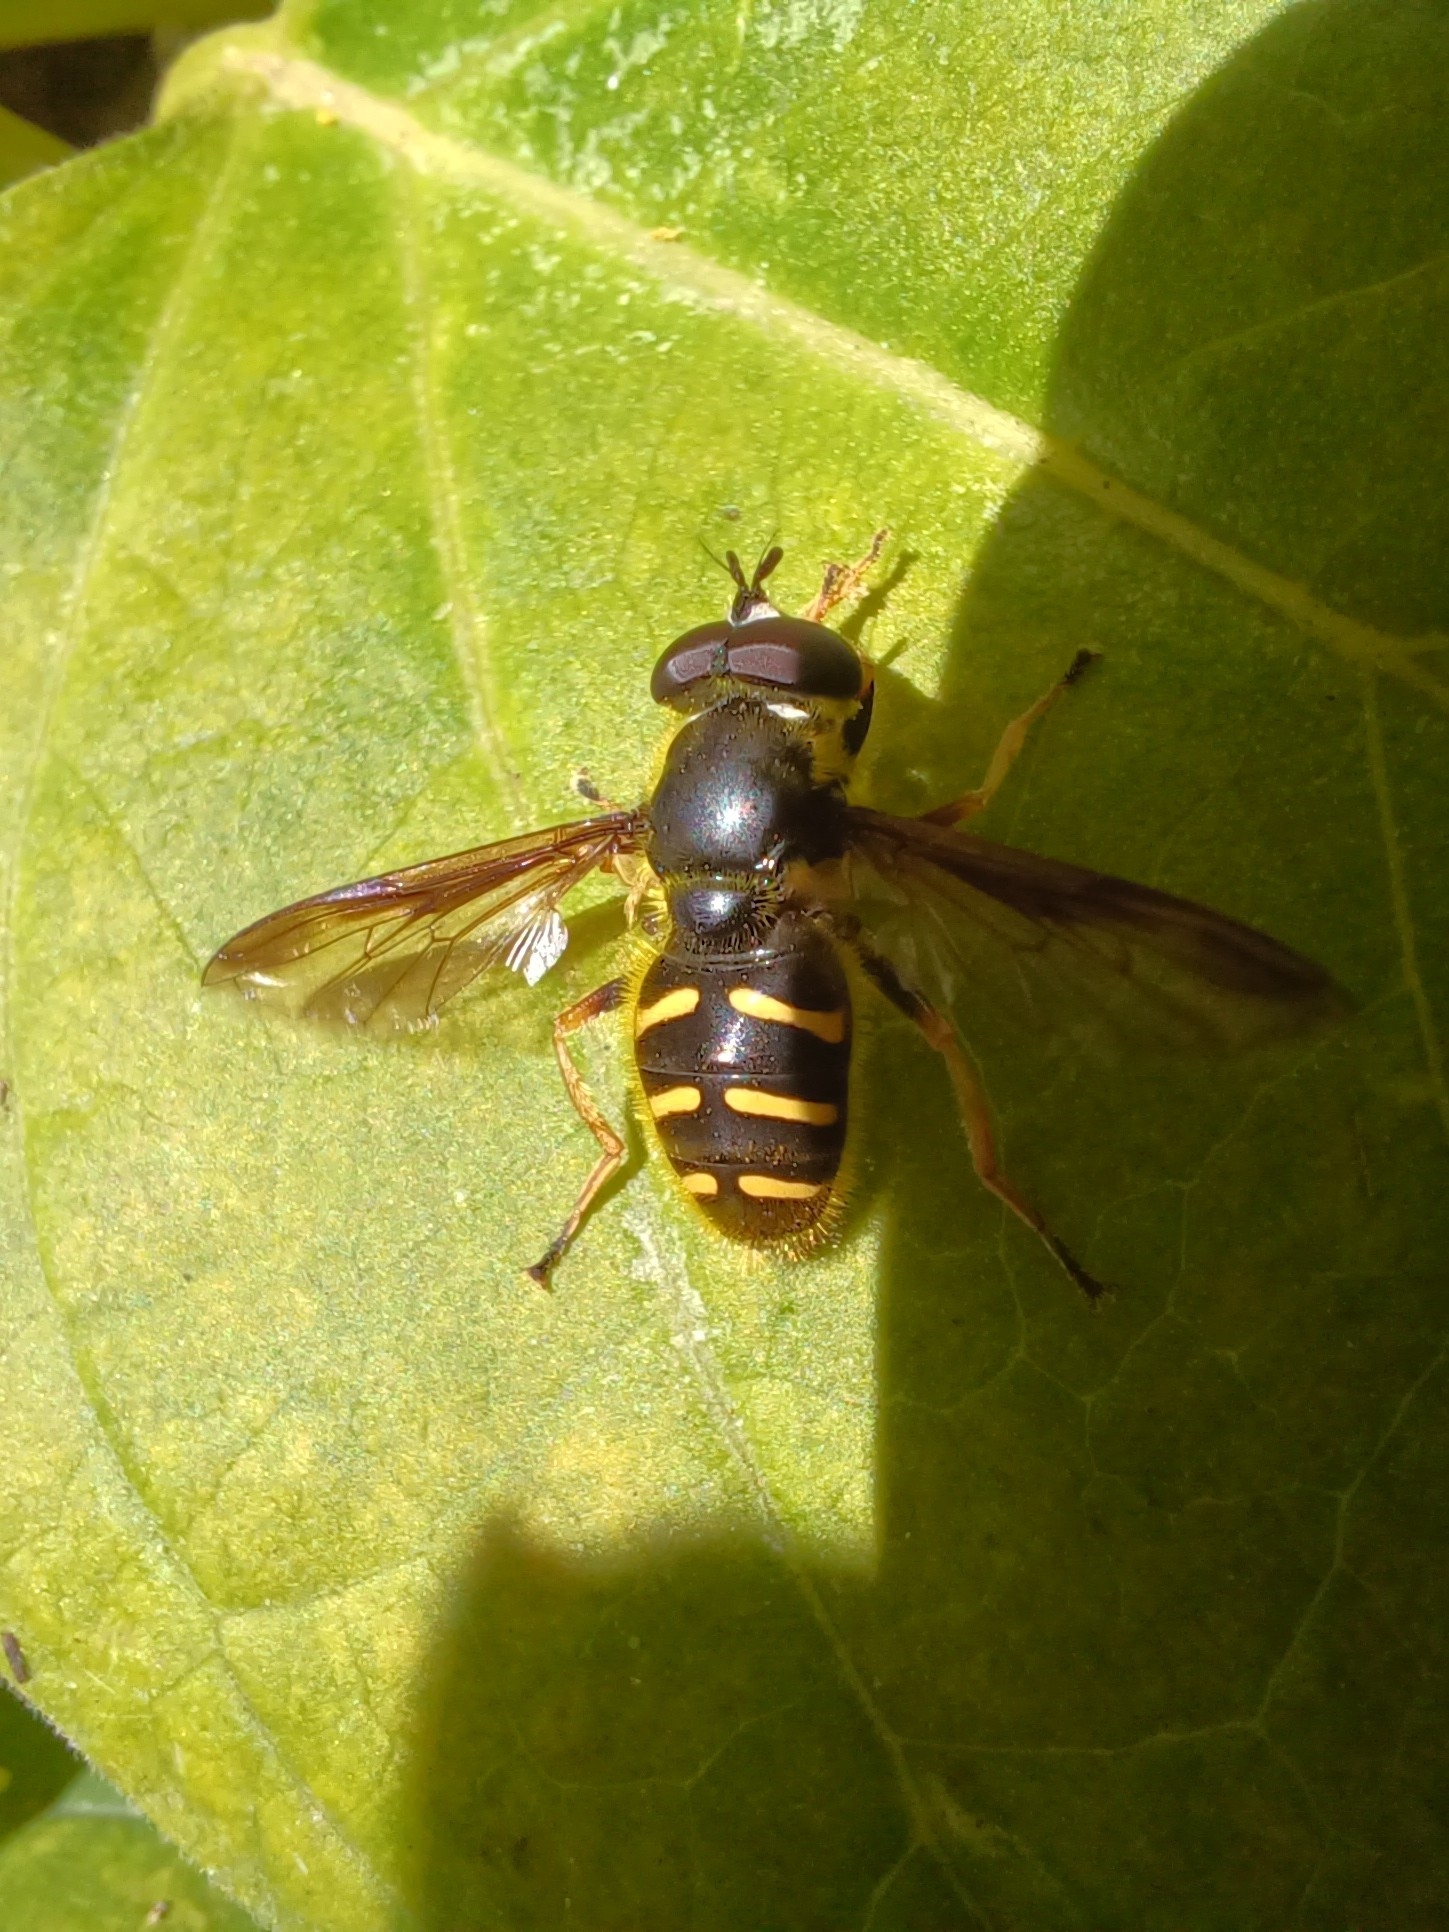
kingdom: Animalia
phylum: Arthropoda
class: Insecta
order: Diptera
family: Syrphidae
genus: Sericomyia
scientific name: Sericomyia chrysotoxoides
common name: Oblique-banded pond fly
